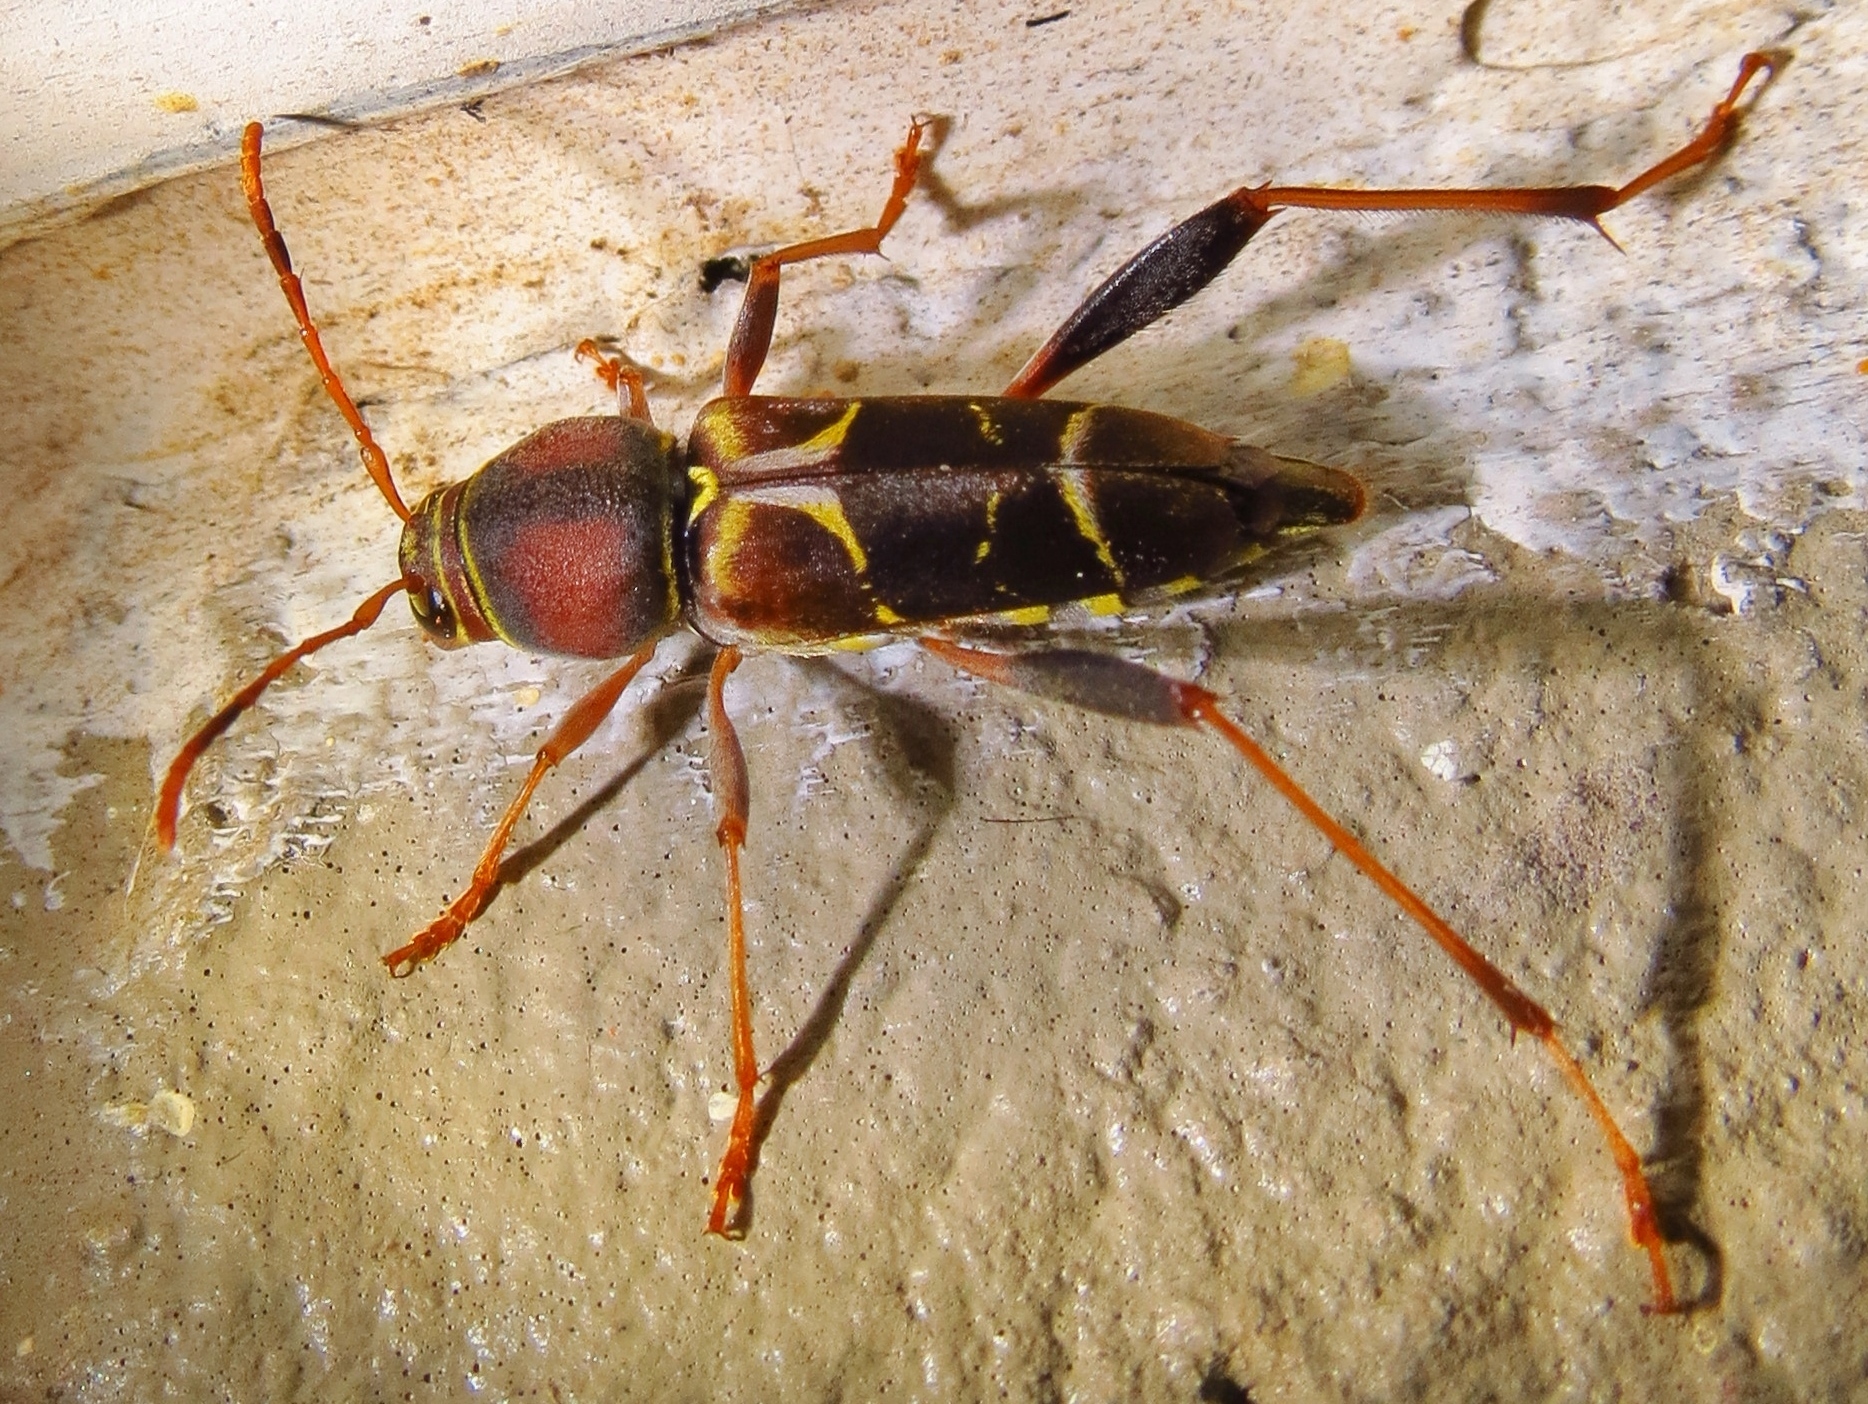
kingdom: Animalia
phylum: Arthropoda
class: Insecta
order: Coleoptera
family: Cerambycidae
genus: Neoclytus
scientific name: Neoclytus mucronatus
